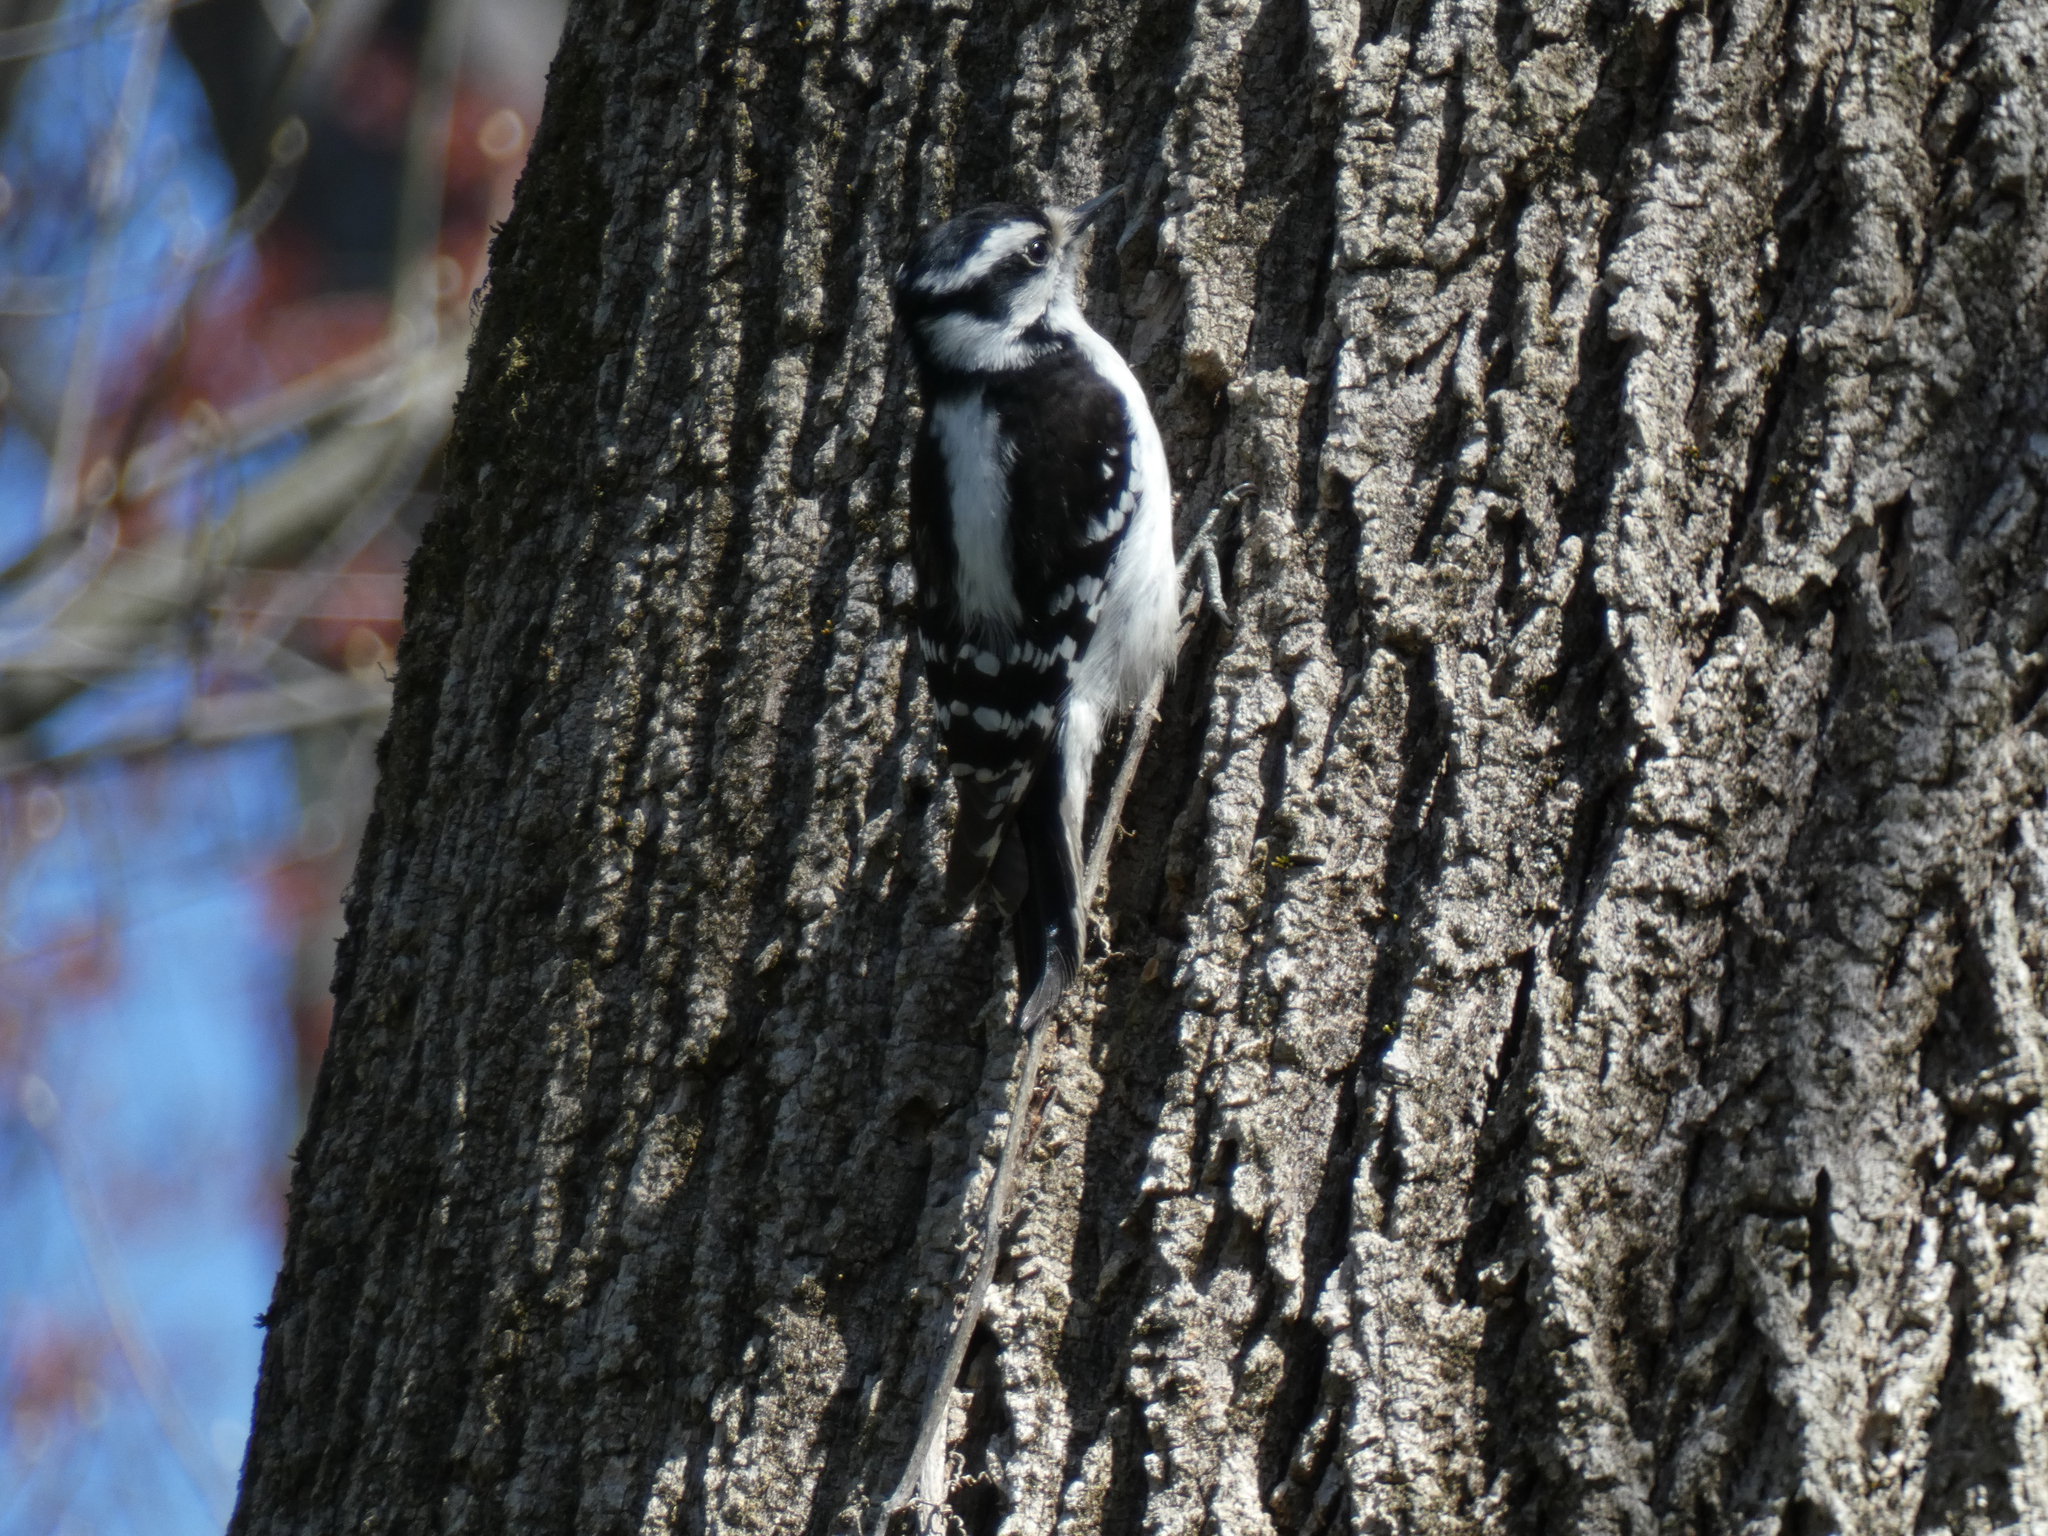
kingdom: Animalia
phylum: Chordata
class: Aves
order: Piciformes
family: Picidae
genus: Dryobates
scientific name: Dryobates pubescens
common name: Downy woodpecker
